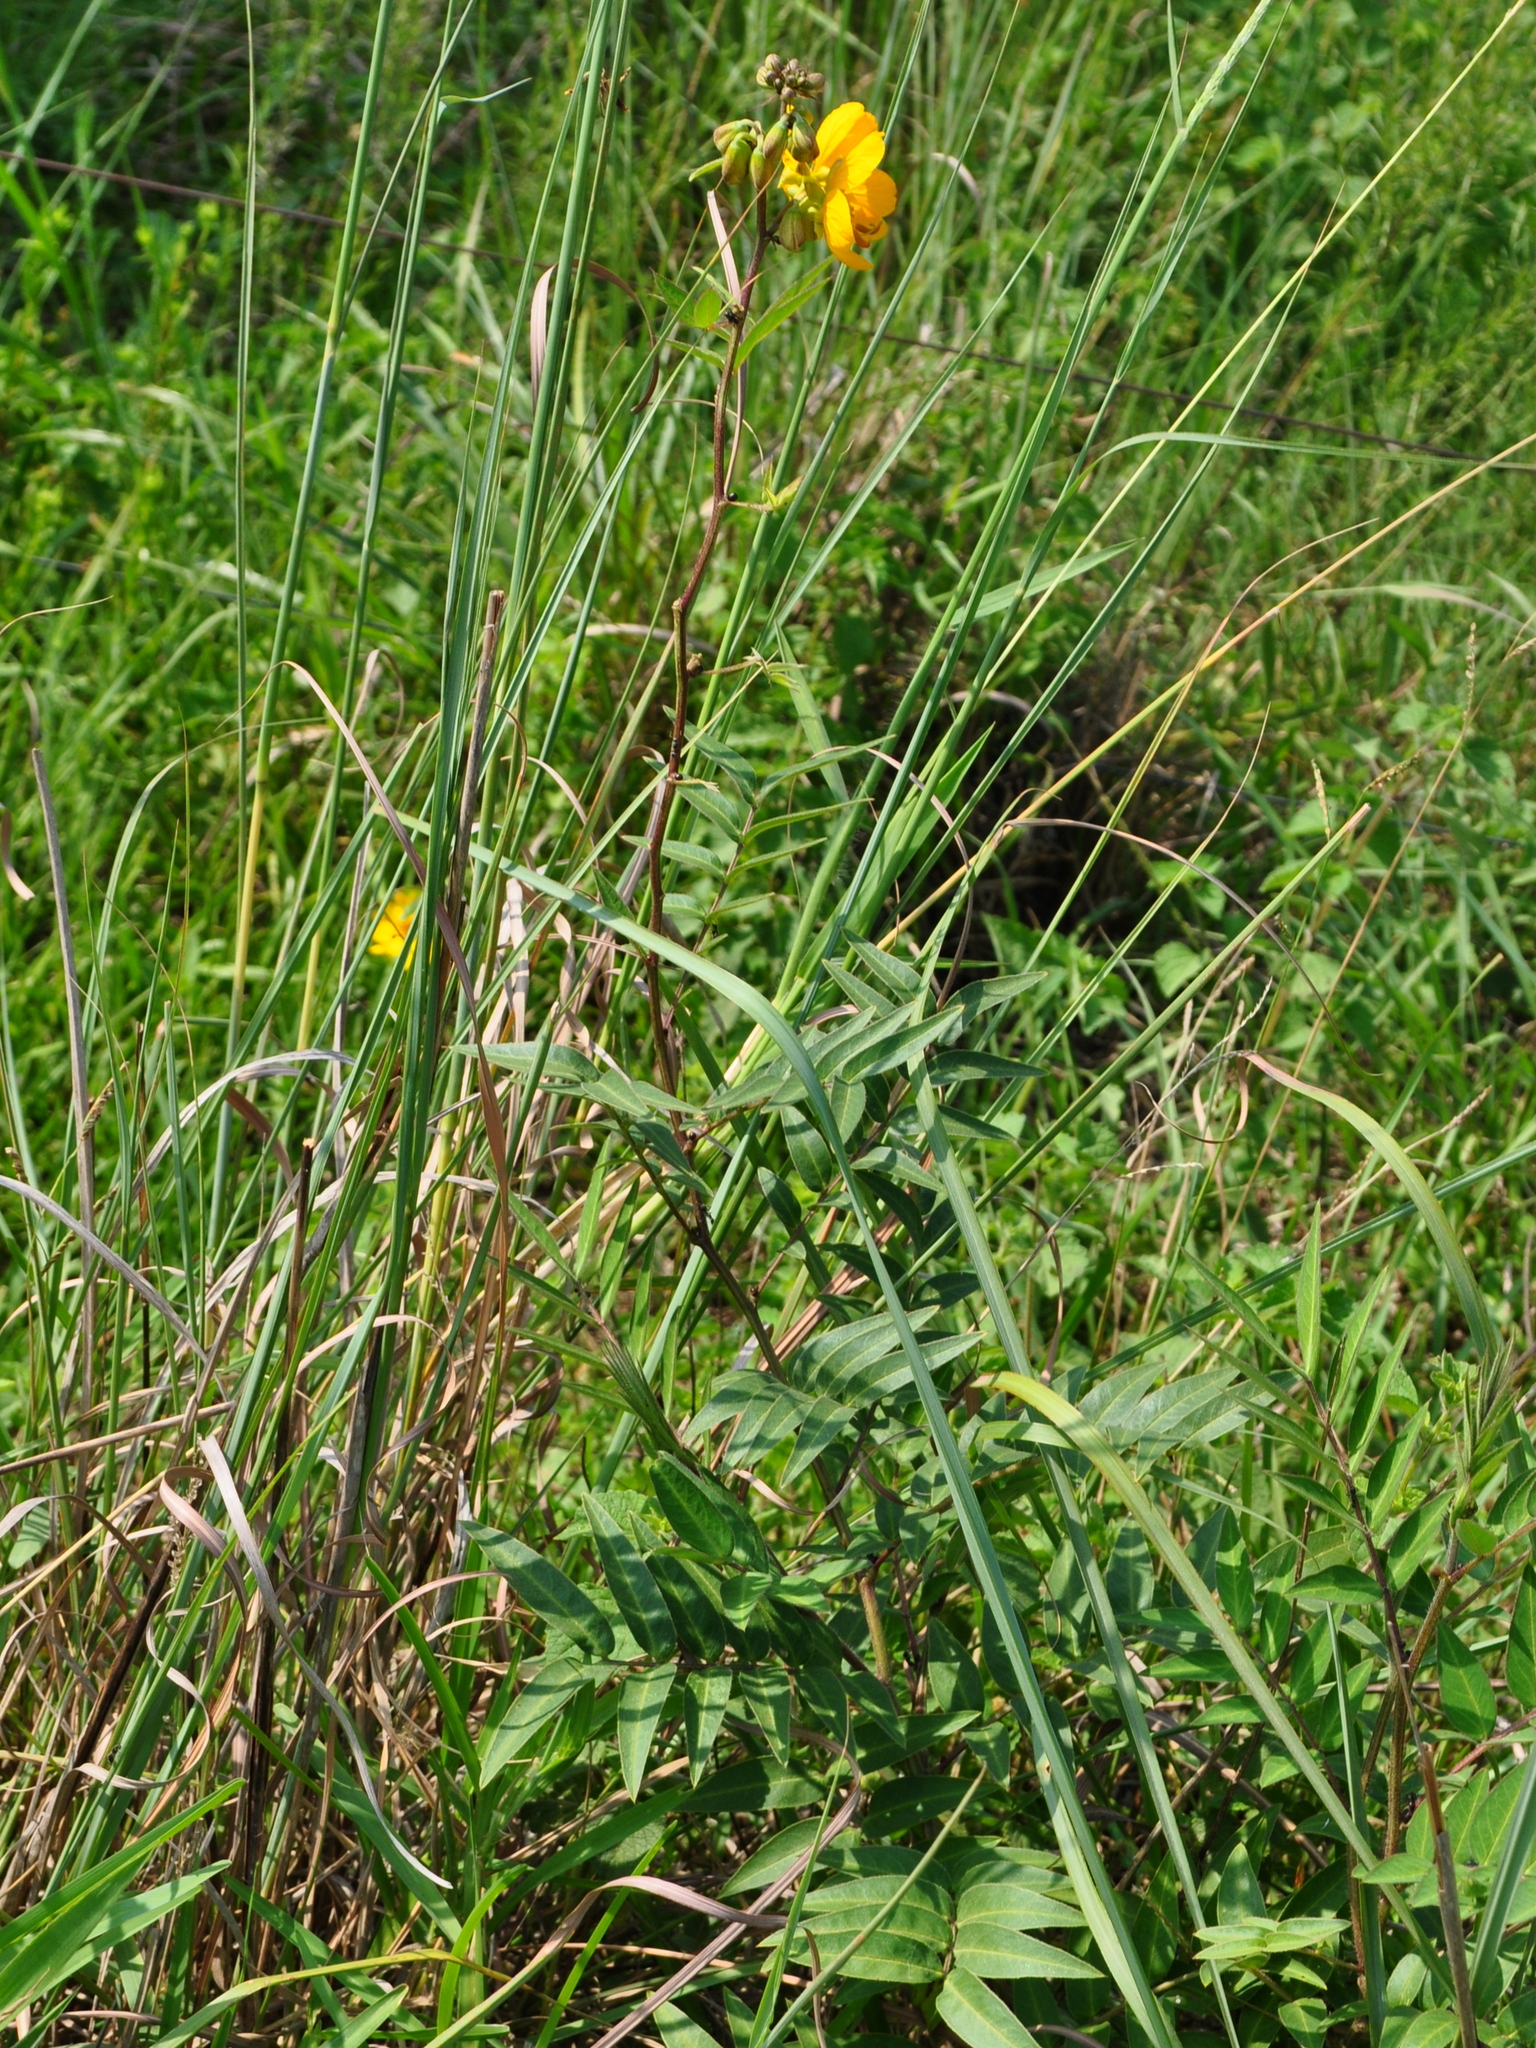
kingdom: Plantae
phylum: Tracheophyta
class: Magnoliopsida
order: Fabales
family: Fabaceae
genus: Senna
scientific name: Senna occidentalis
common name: Septicweed
